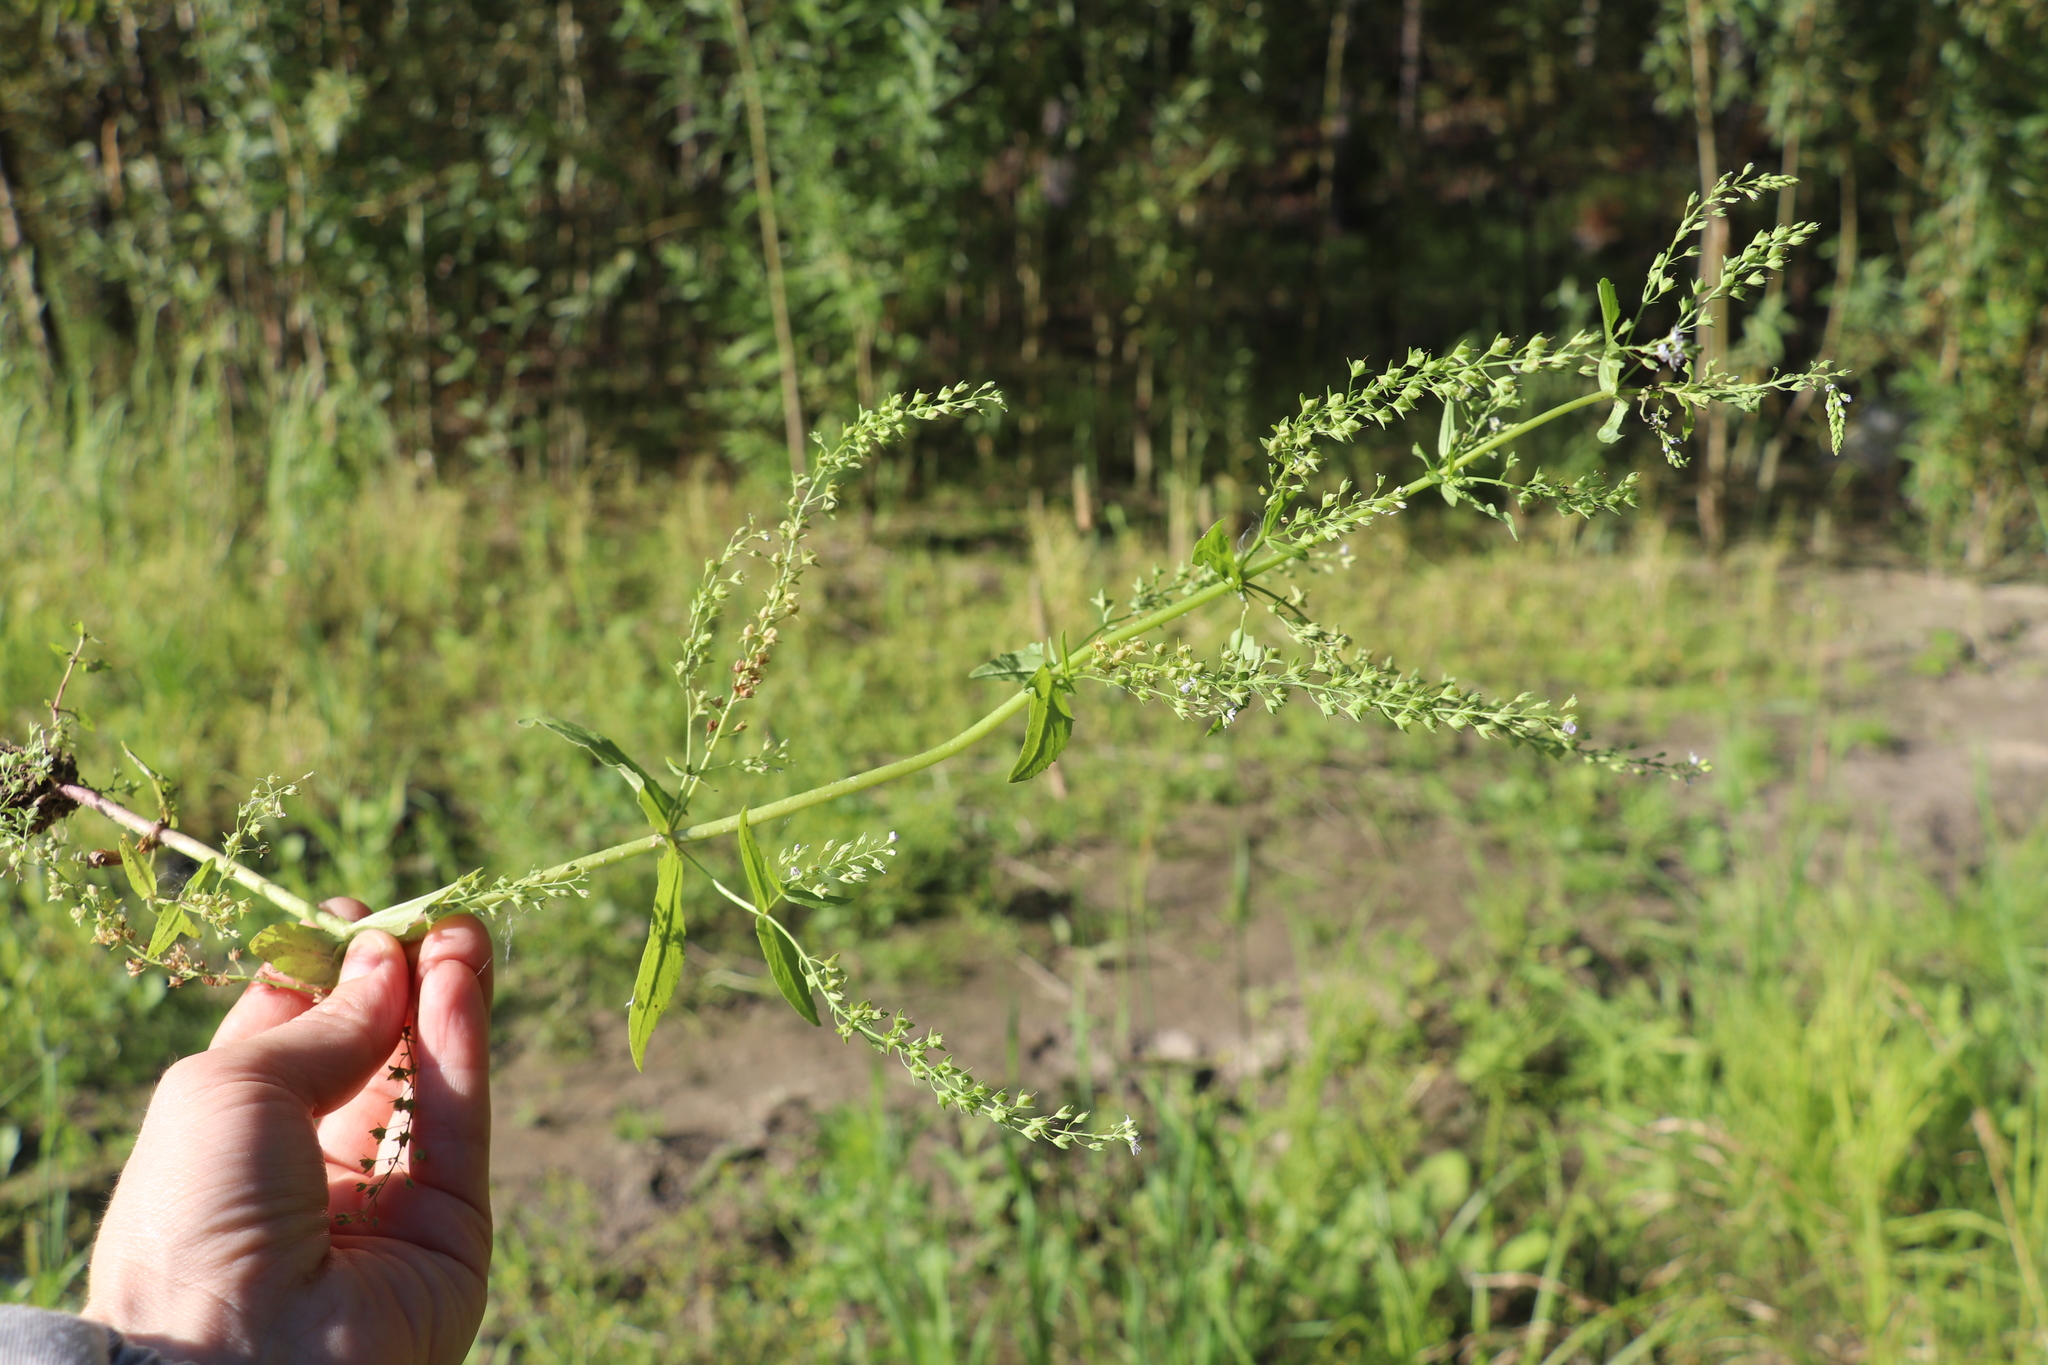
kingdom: Plantae
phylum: Tracheophyta
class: Magnoliopsida
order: Lamiales
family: Plantaginaceae
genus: Veronica
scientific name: Veronica anagallis-aquatica
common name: Water speedwell
